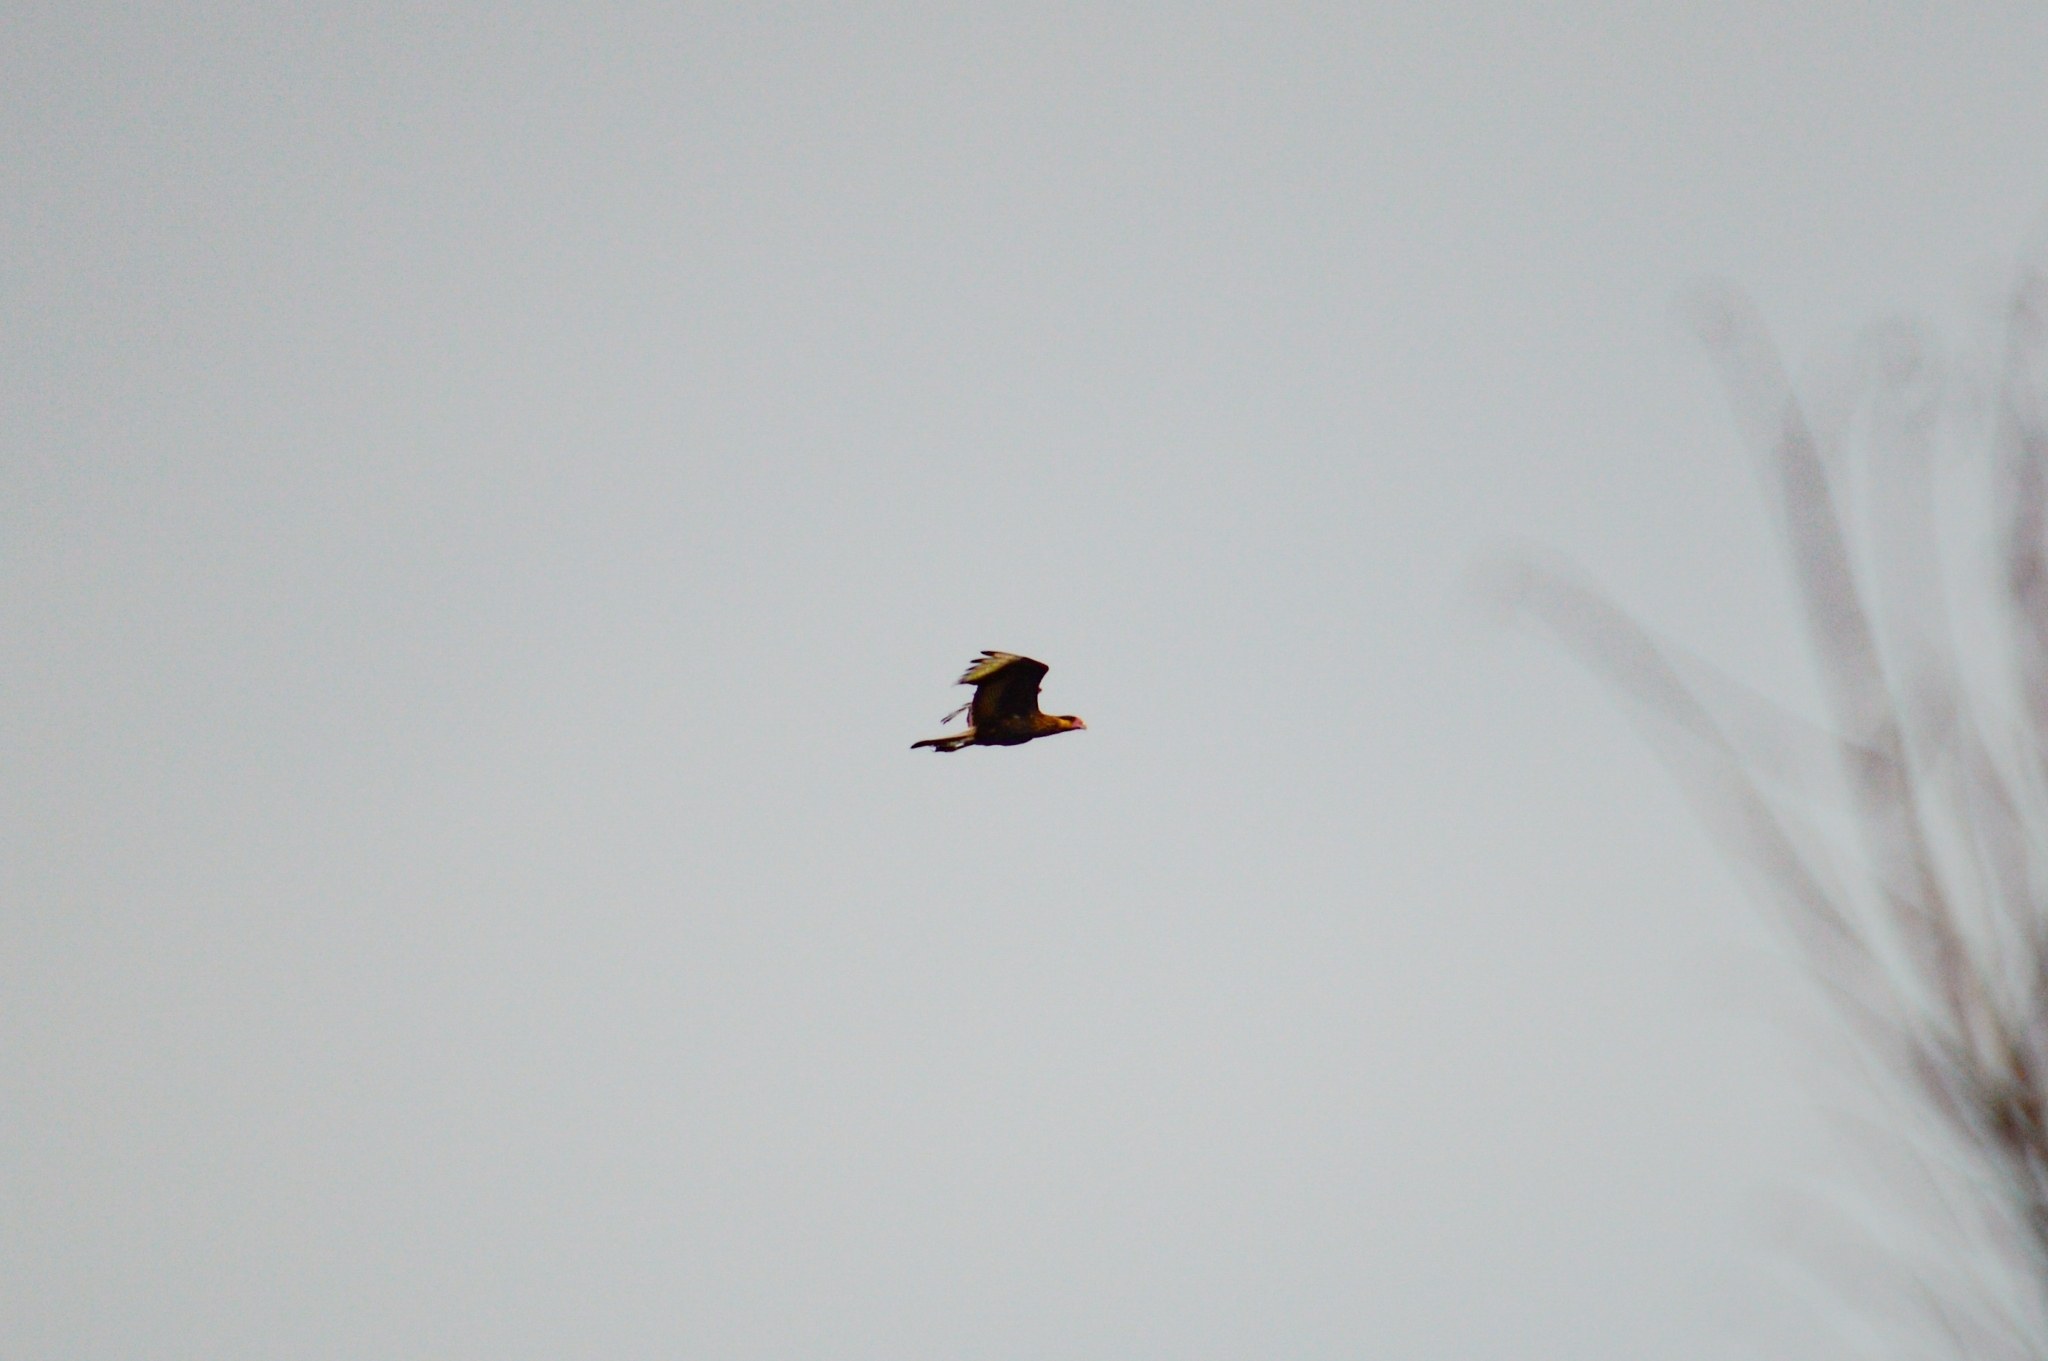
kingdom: Animalia
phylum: Chordata
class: Aves
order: Falconiformes
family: Falconidae
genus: Caracara
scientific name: Caracara plancus
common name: Southern caracara
